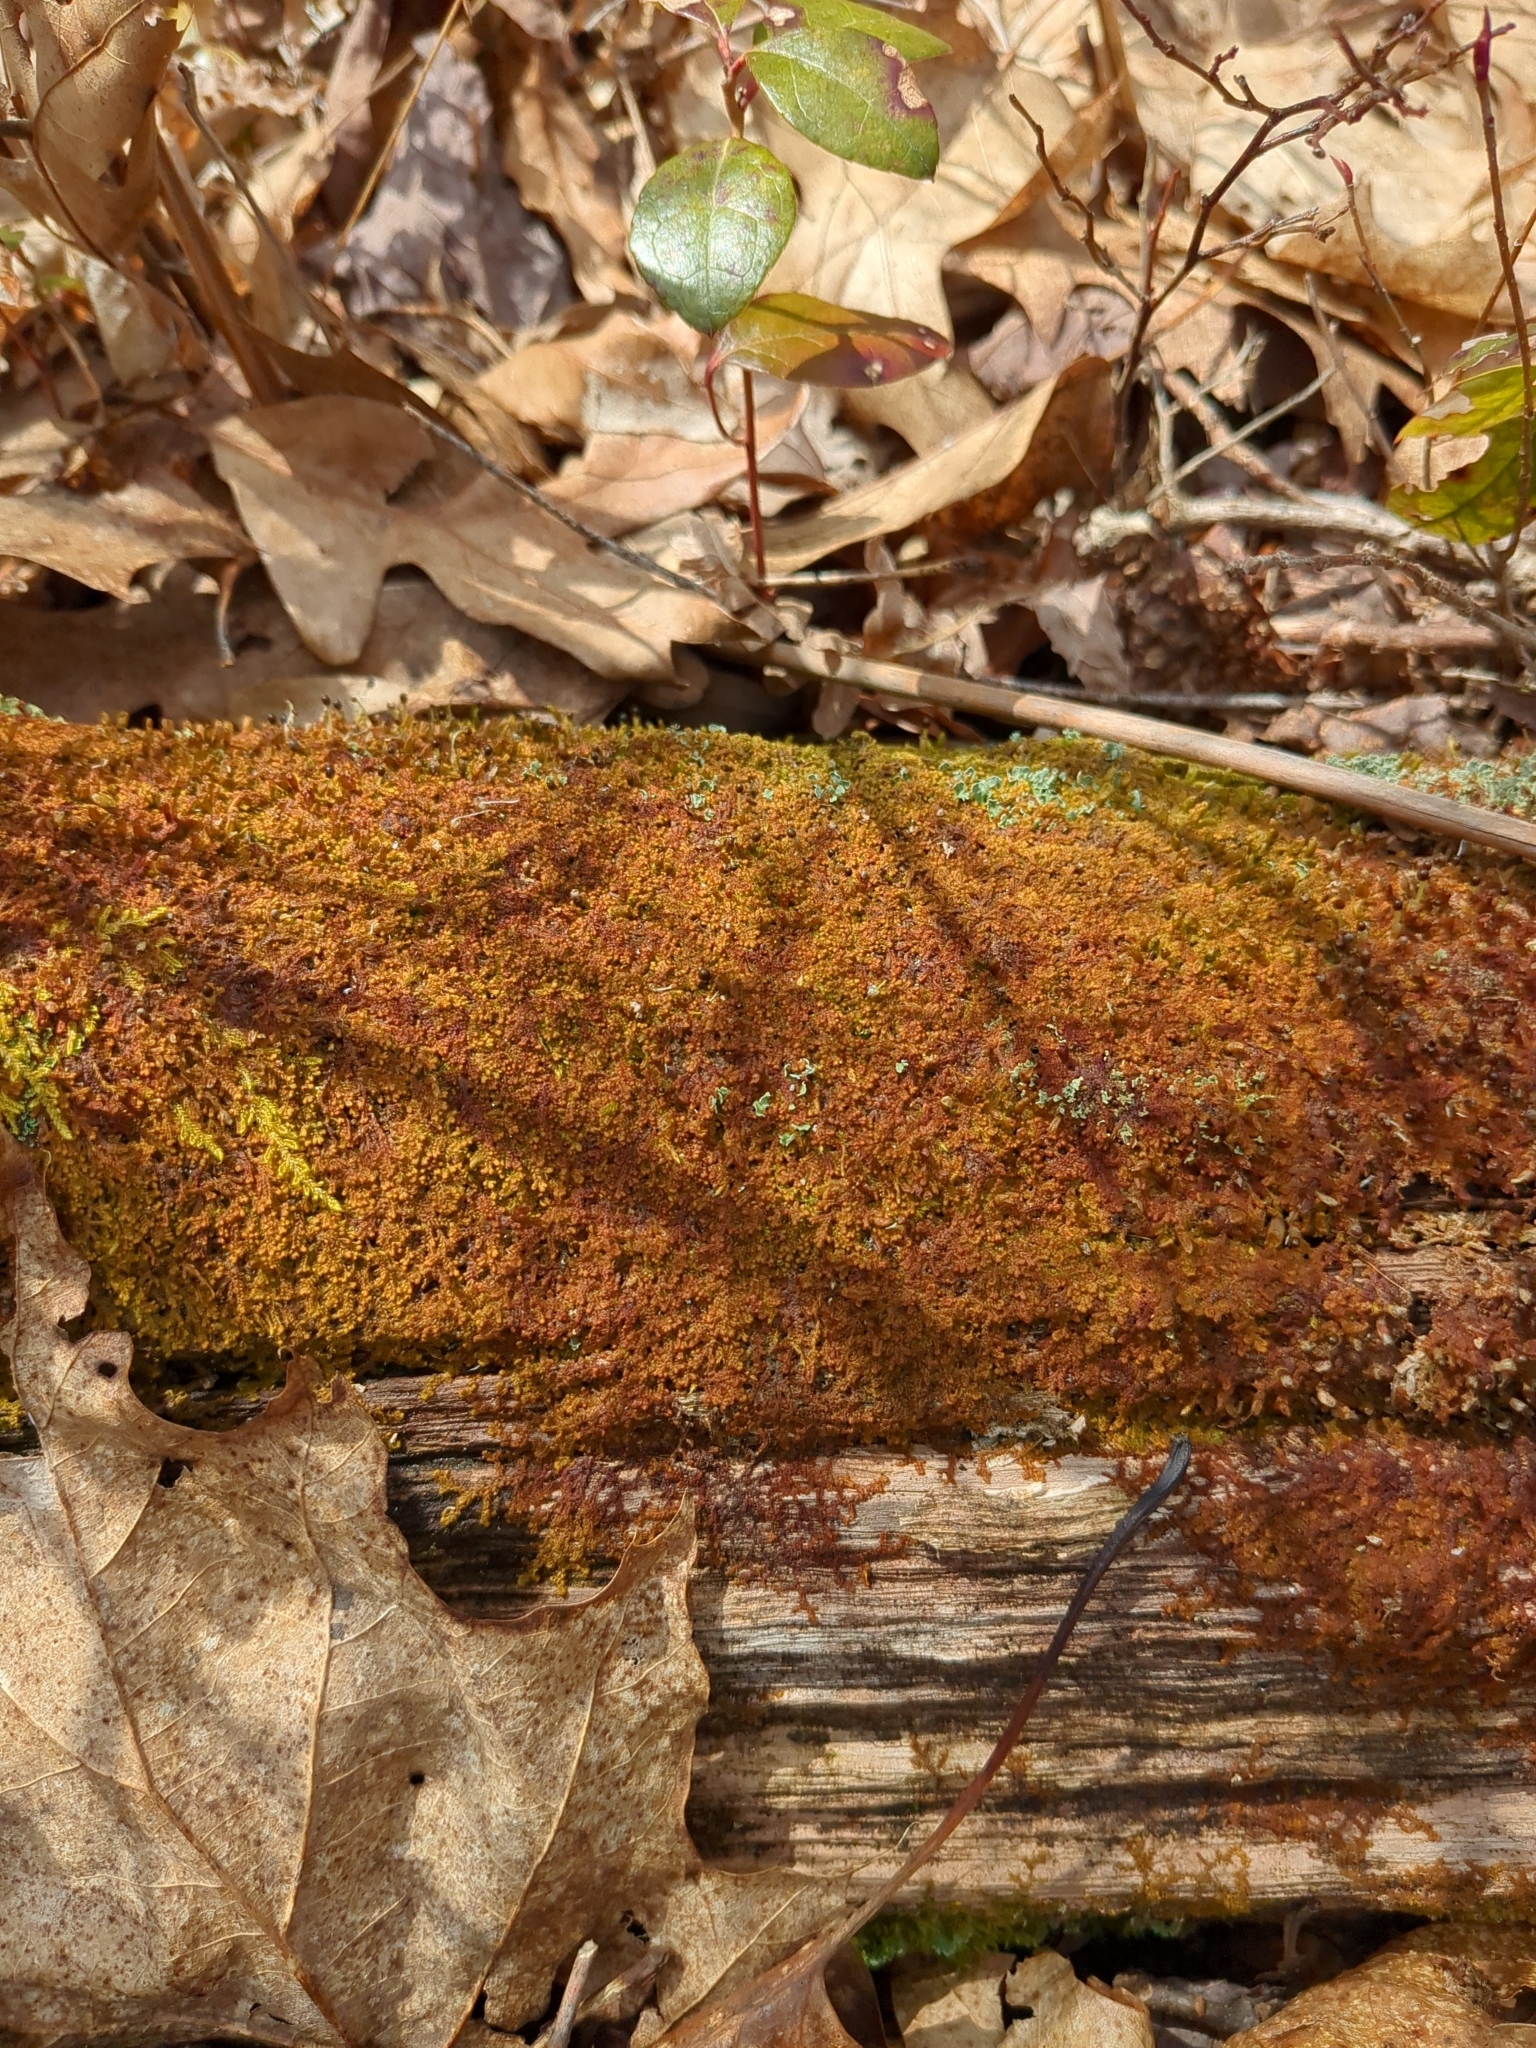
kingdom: Plantae
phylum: Marchantiophyta
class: Jungermanniopsida
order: Ptilidiales
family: Ptilidiaceae
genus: Ptilidium
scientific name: Ptilidium pulcherrimum
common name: Tree fringewort
